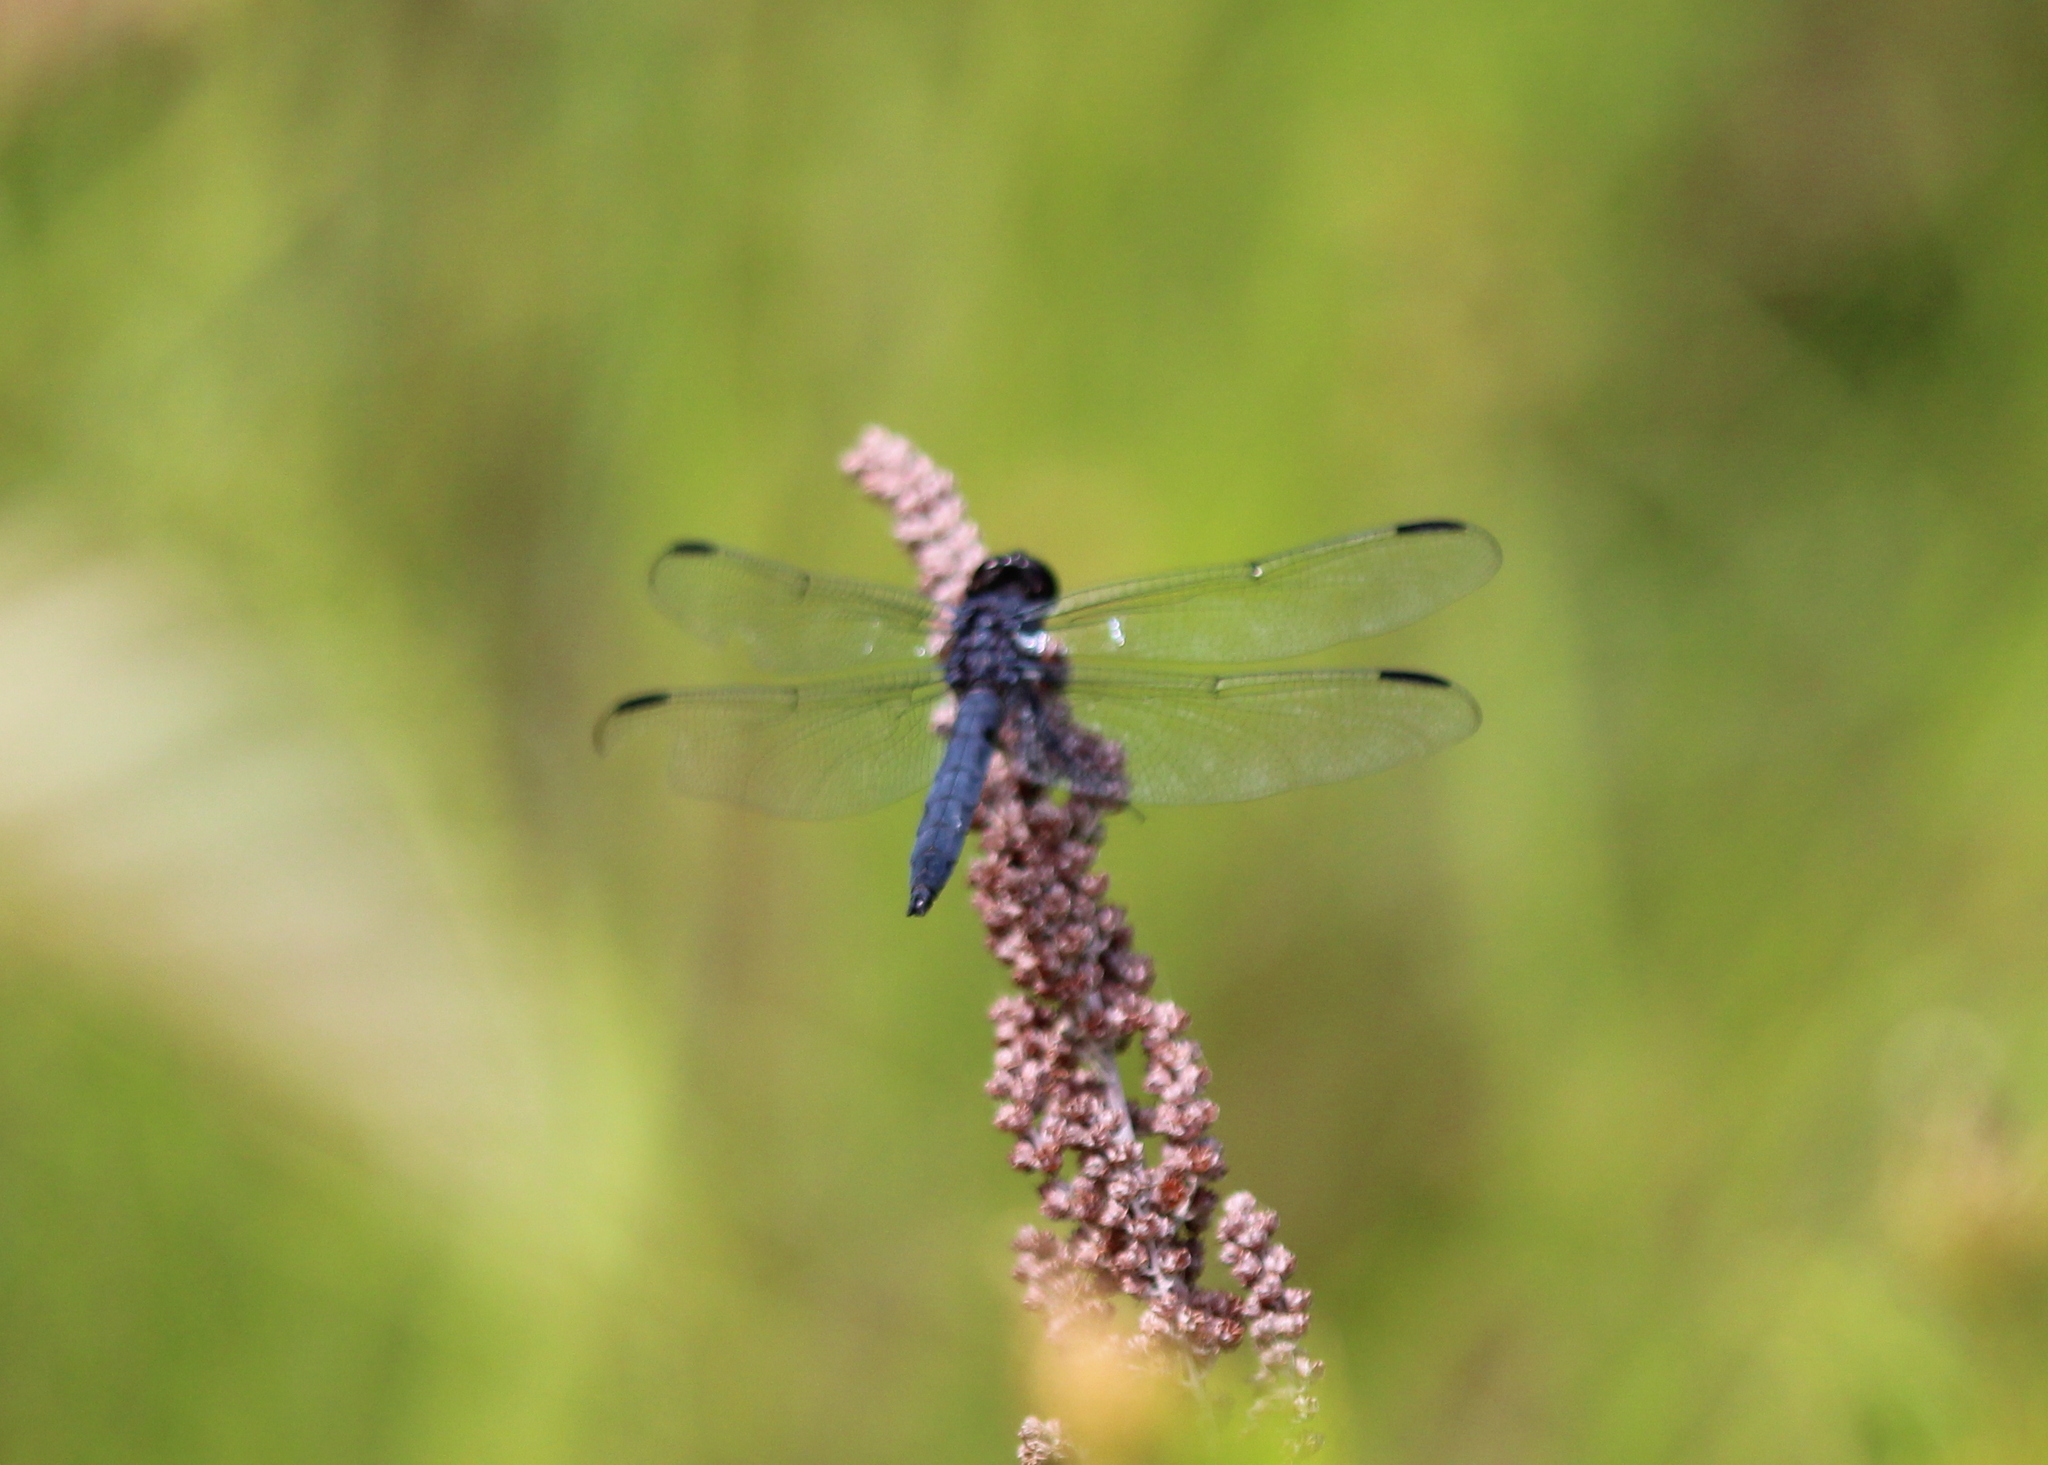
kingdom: Animalia
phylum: Arthropoda
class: Insecta
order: Odonata
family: Libellulidae
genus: Libellula
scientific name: Libellula incesta
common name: Slaty skimmer
